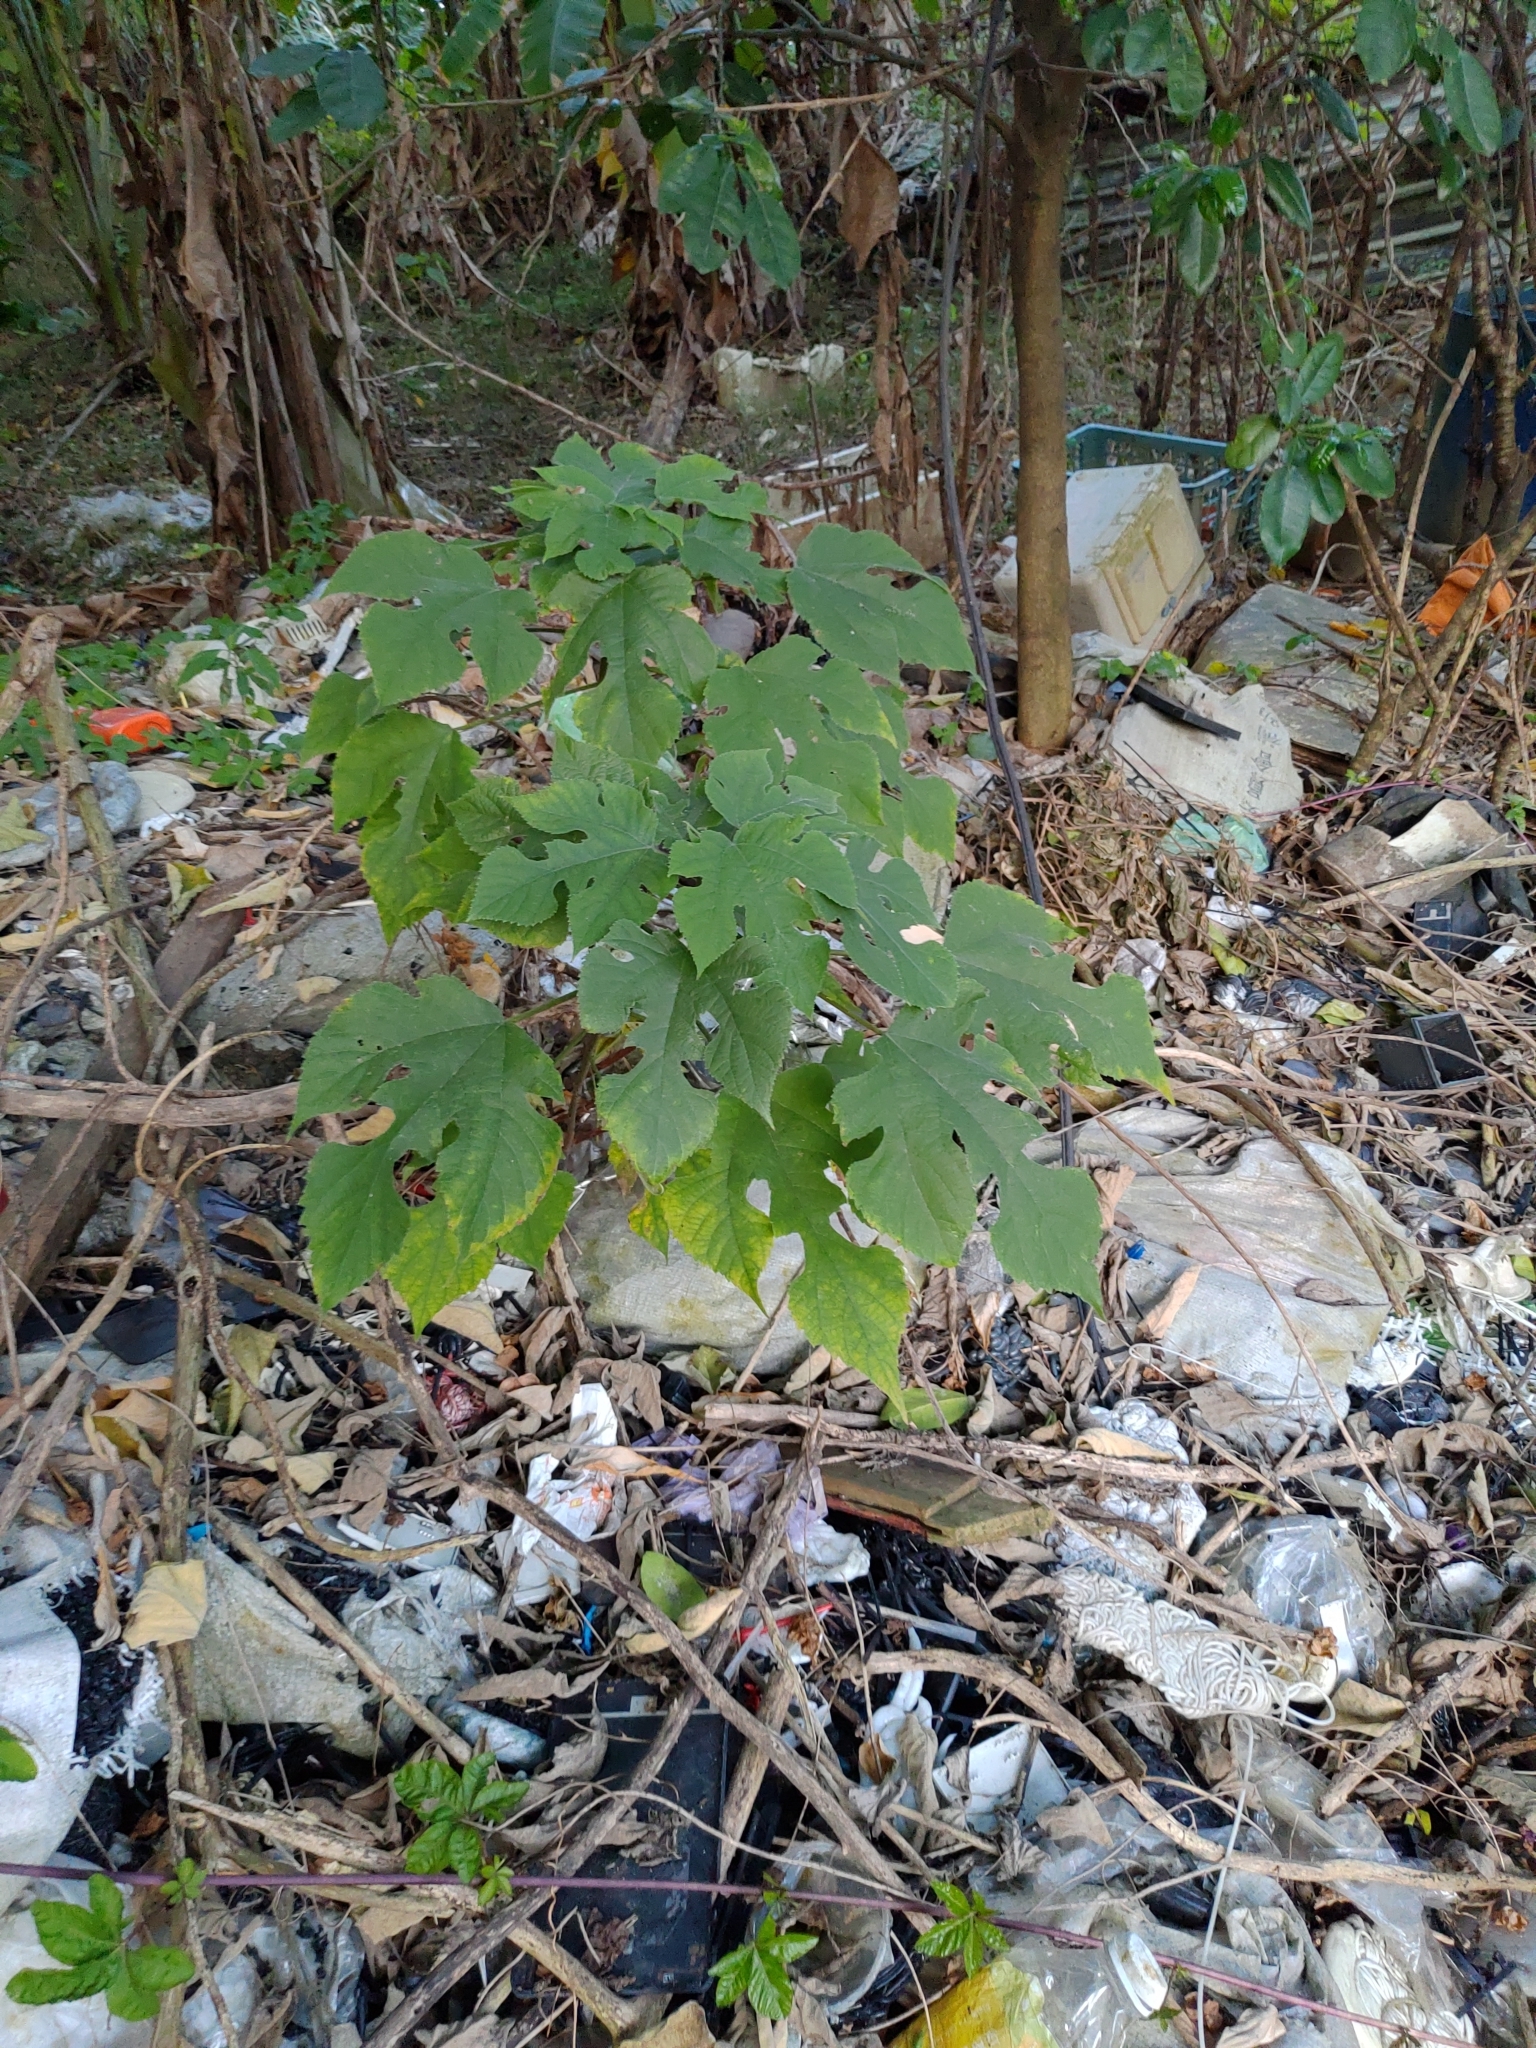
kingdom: Plantae
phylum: Tracheophyta
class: Magnoliopsida
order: Rosales
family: Moraceae
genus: Broussonetia
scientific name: Broussonetia papyrifera
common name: Paper mulberry
